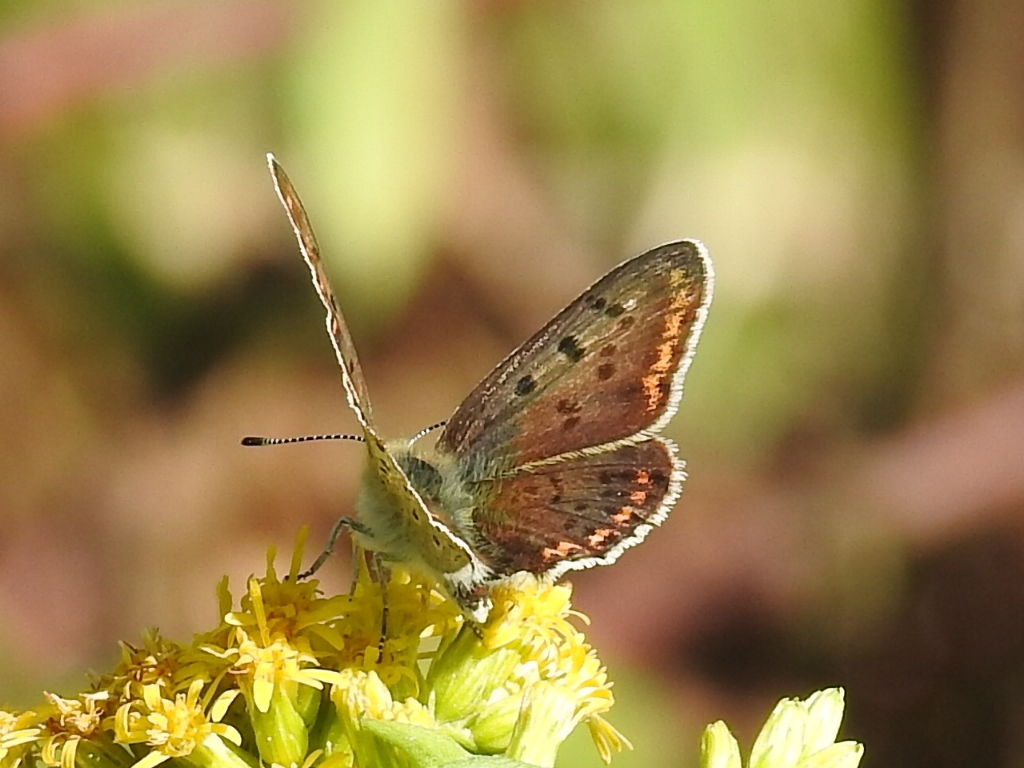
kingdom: Animalia
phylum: Arthropoda
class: Insecta
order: Lepidoptera
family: Lycaenidae
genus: Loweia
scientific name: Loweia tityrus
